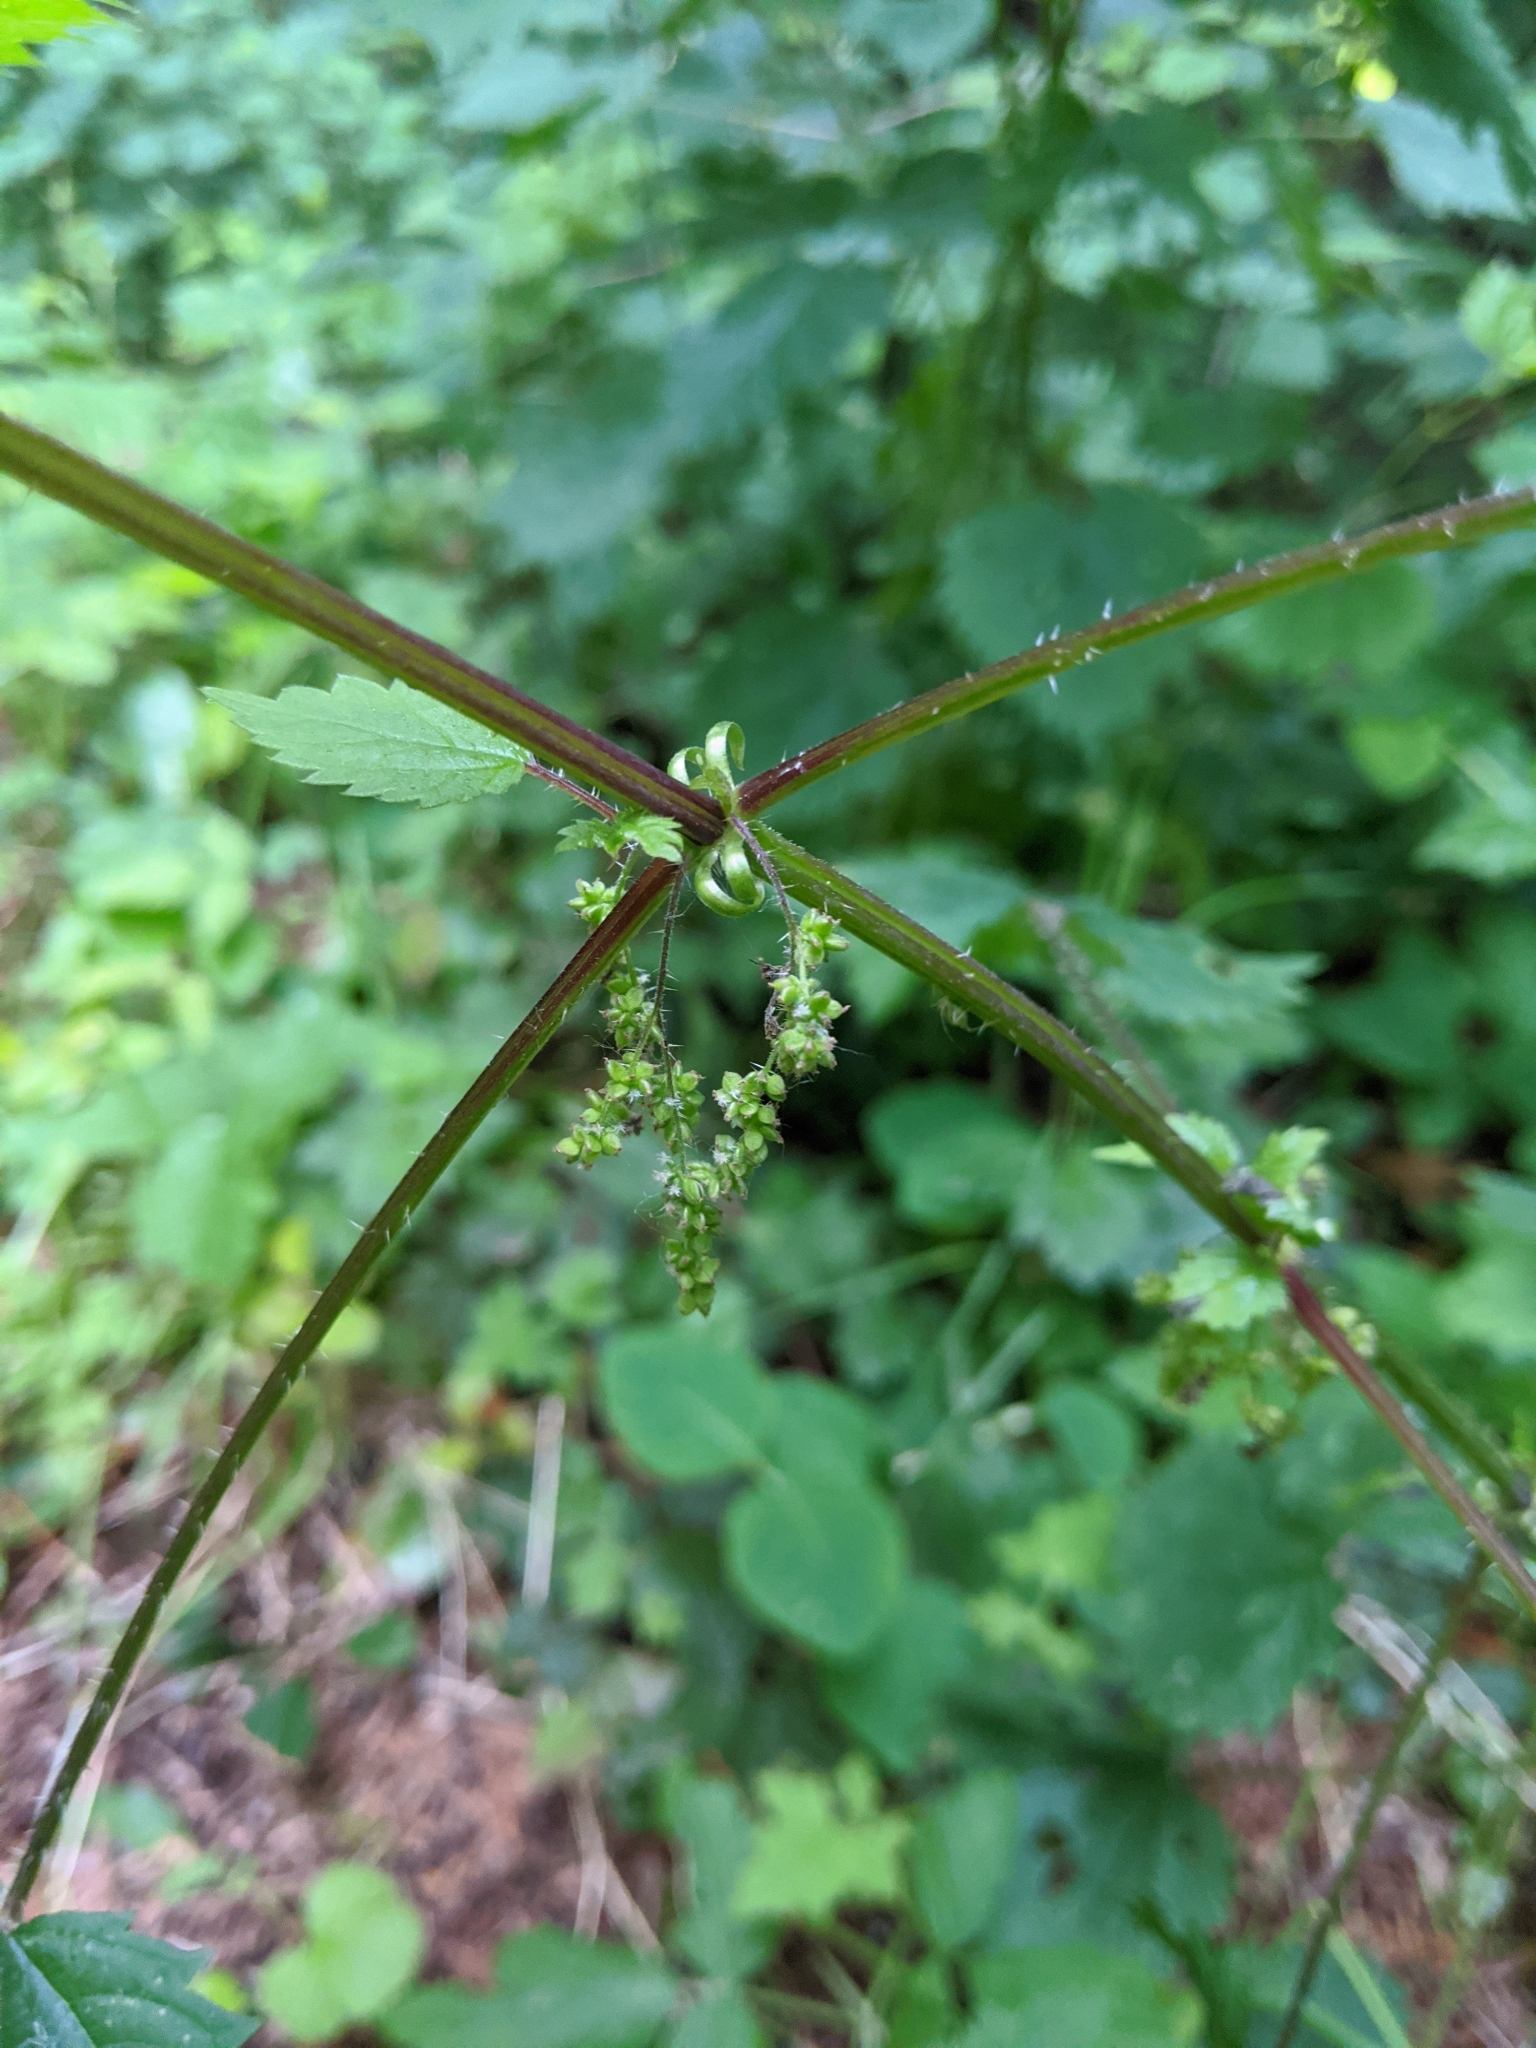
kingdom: Plantae
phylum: Tracheophyta
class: Magnoliopsida
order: Rosales
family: Urticaceae
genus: Urtica
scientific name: Urtica gracilis
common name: Slender stinging nettle
